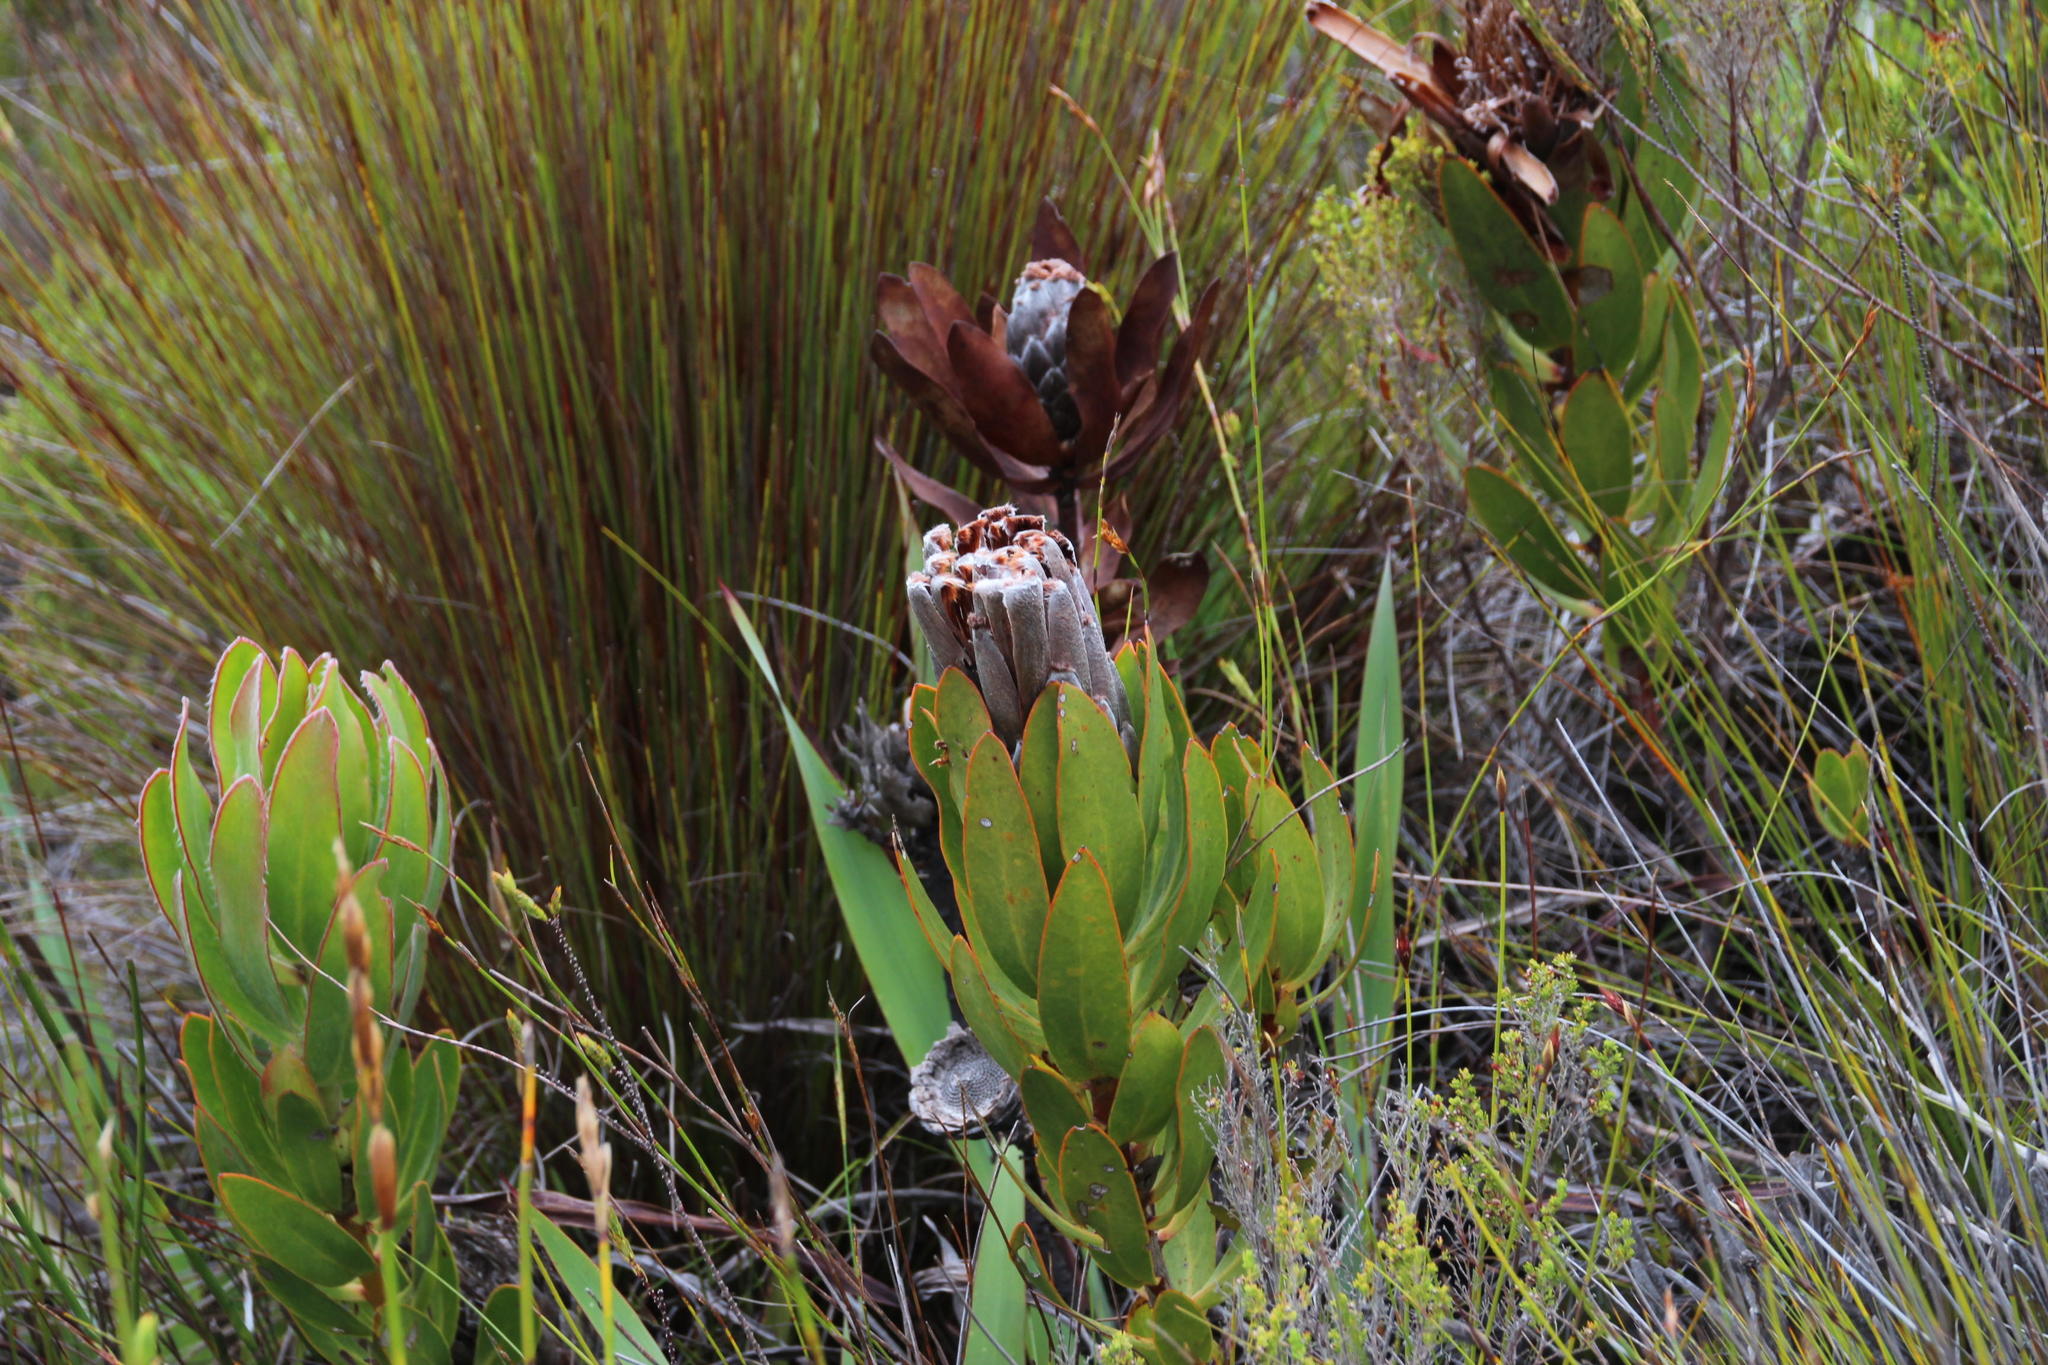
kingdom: Plantae
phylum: Tracheophyta
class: Magnoliopsida
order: Proteales
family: Proteaceae
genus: Protea
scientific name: Protea speciosa
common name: Brown-beard sugarbush
